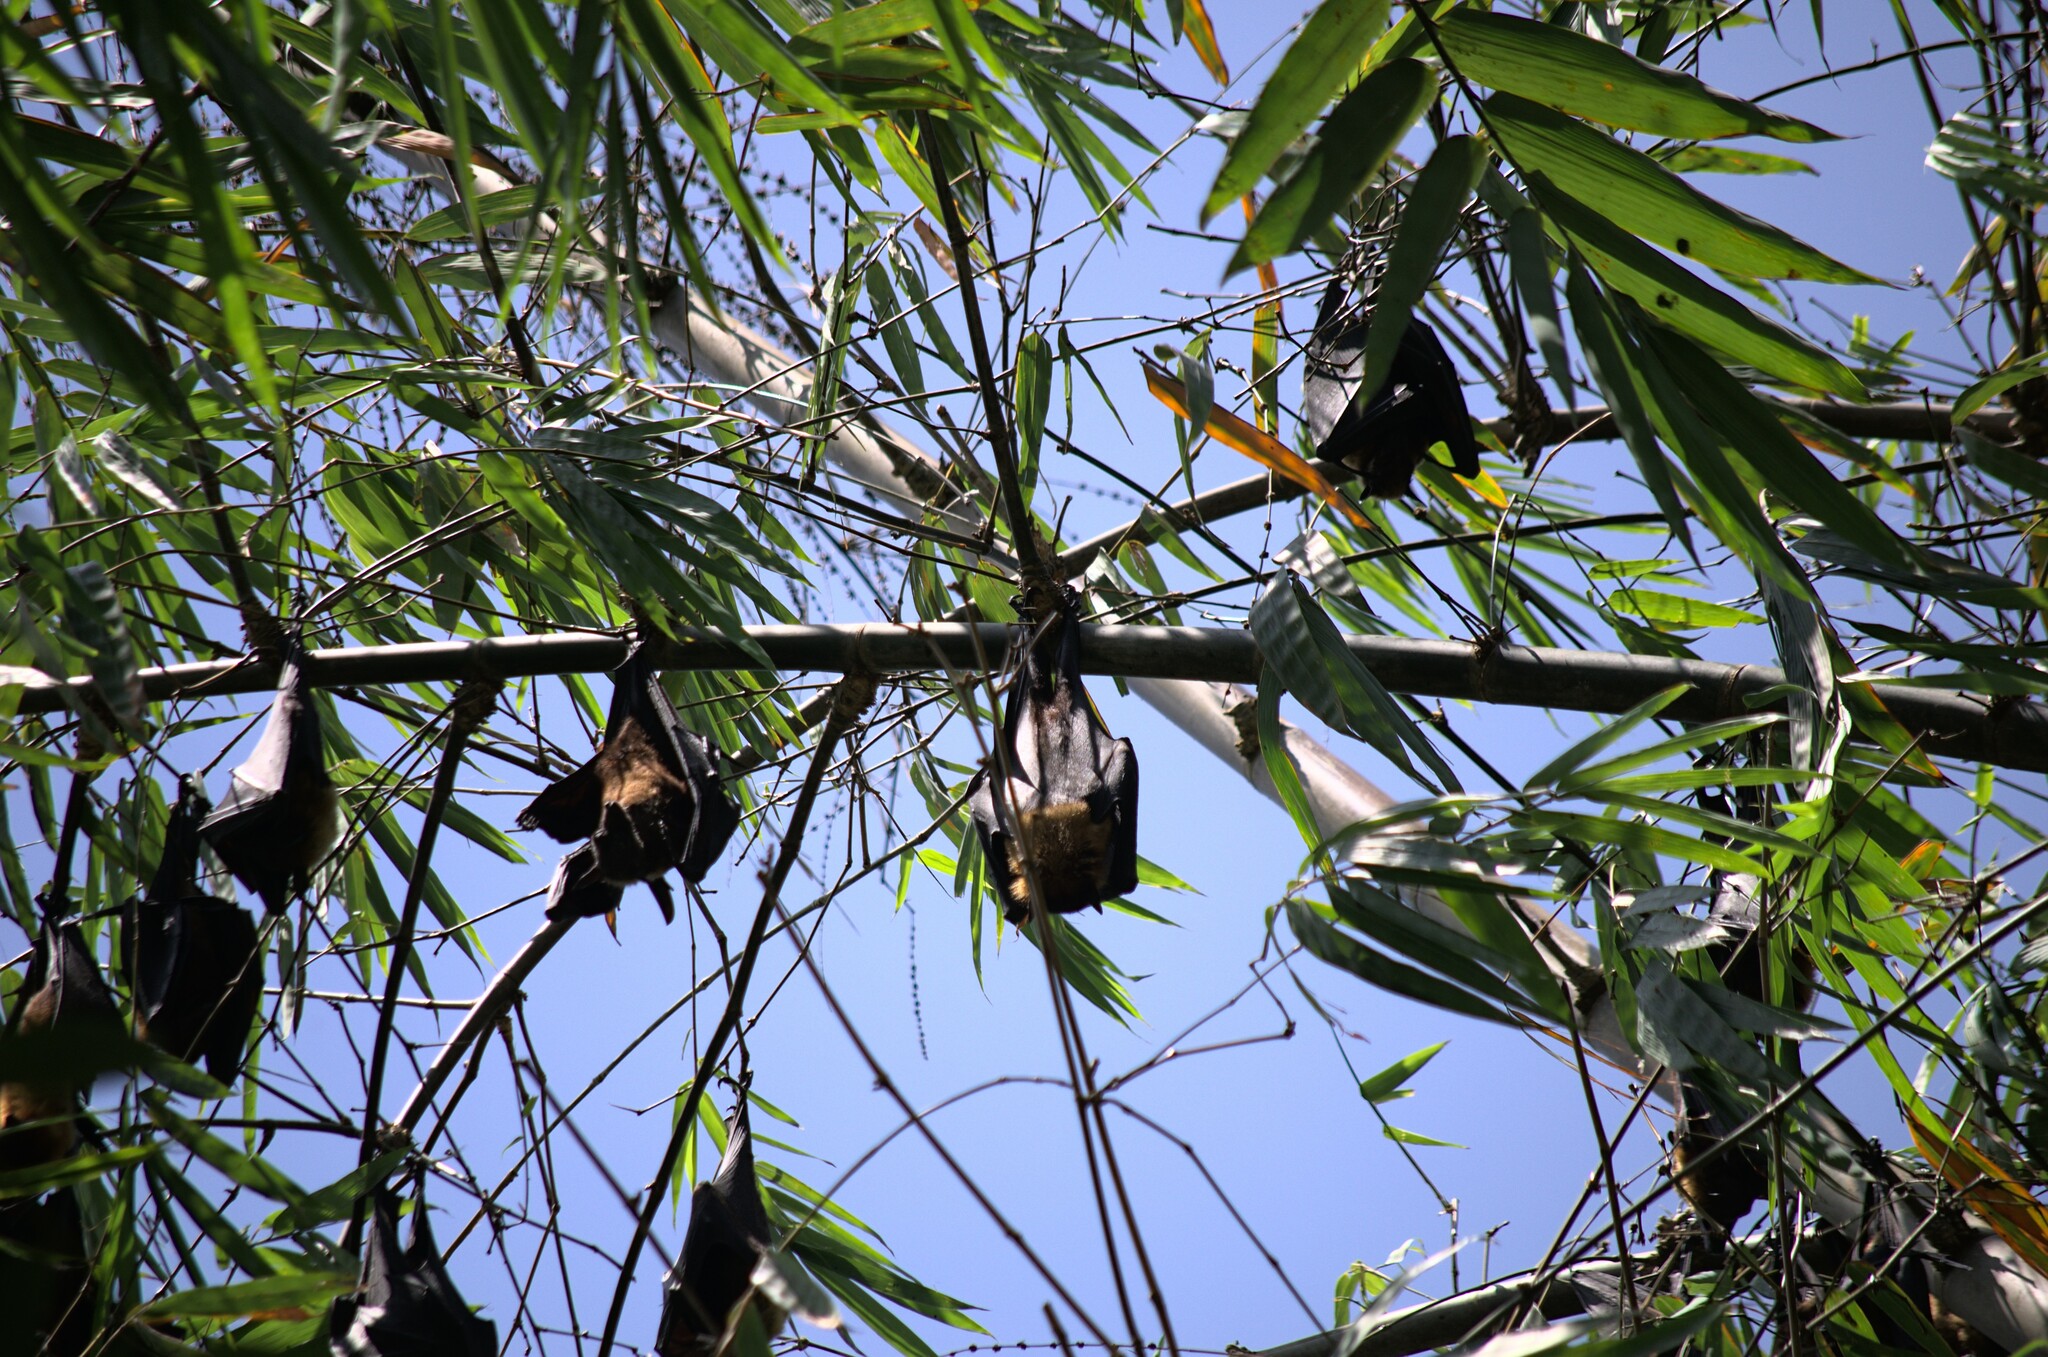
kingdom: Animalia
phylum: Chordata
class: Mammalia
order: Chiroptera
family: Pteropodidae
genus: Pteropus
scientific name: Pteropus vampyrus
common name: Large flying fox
